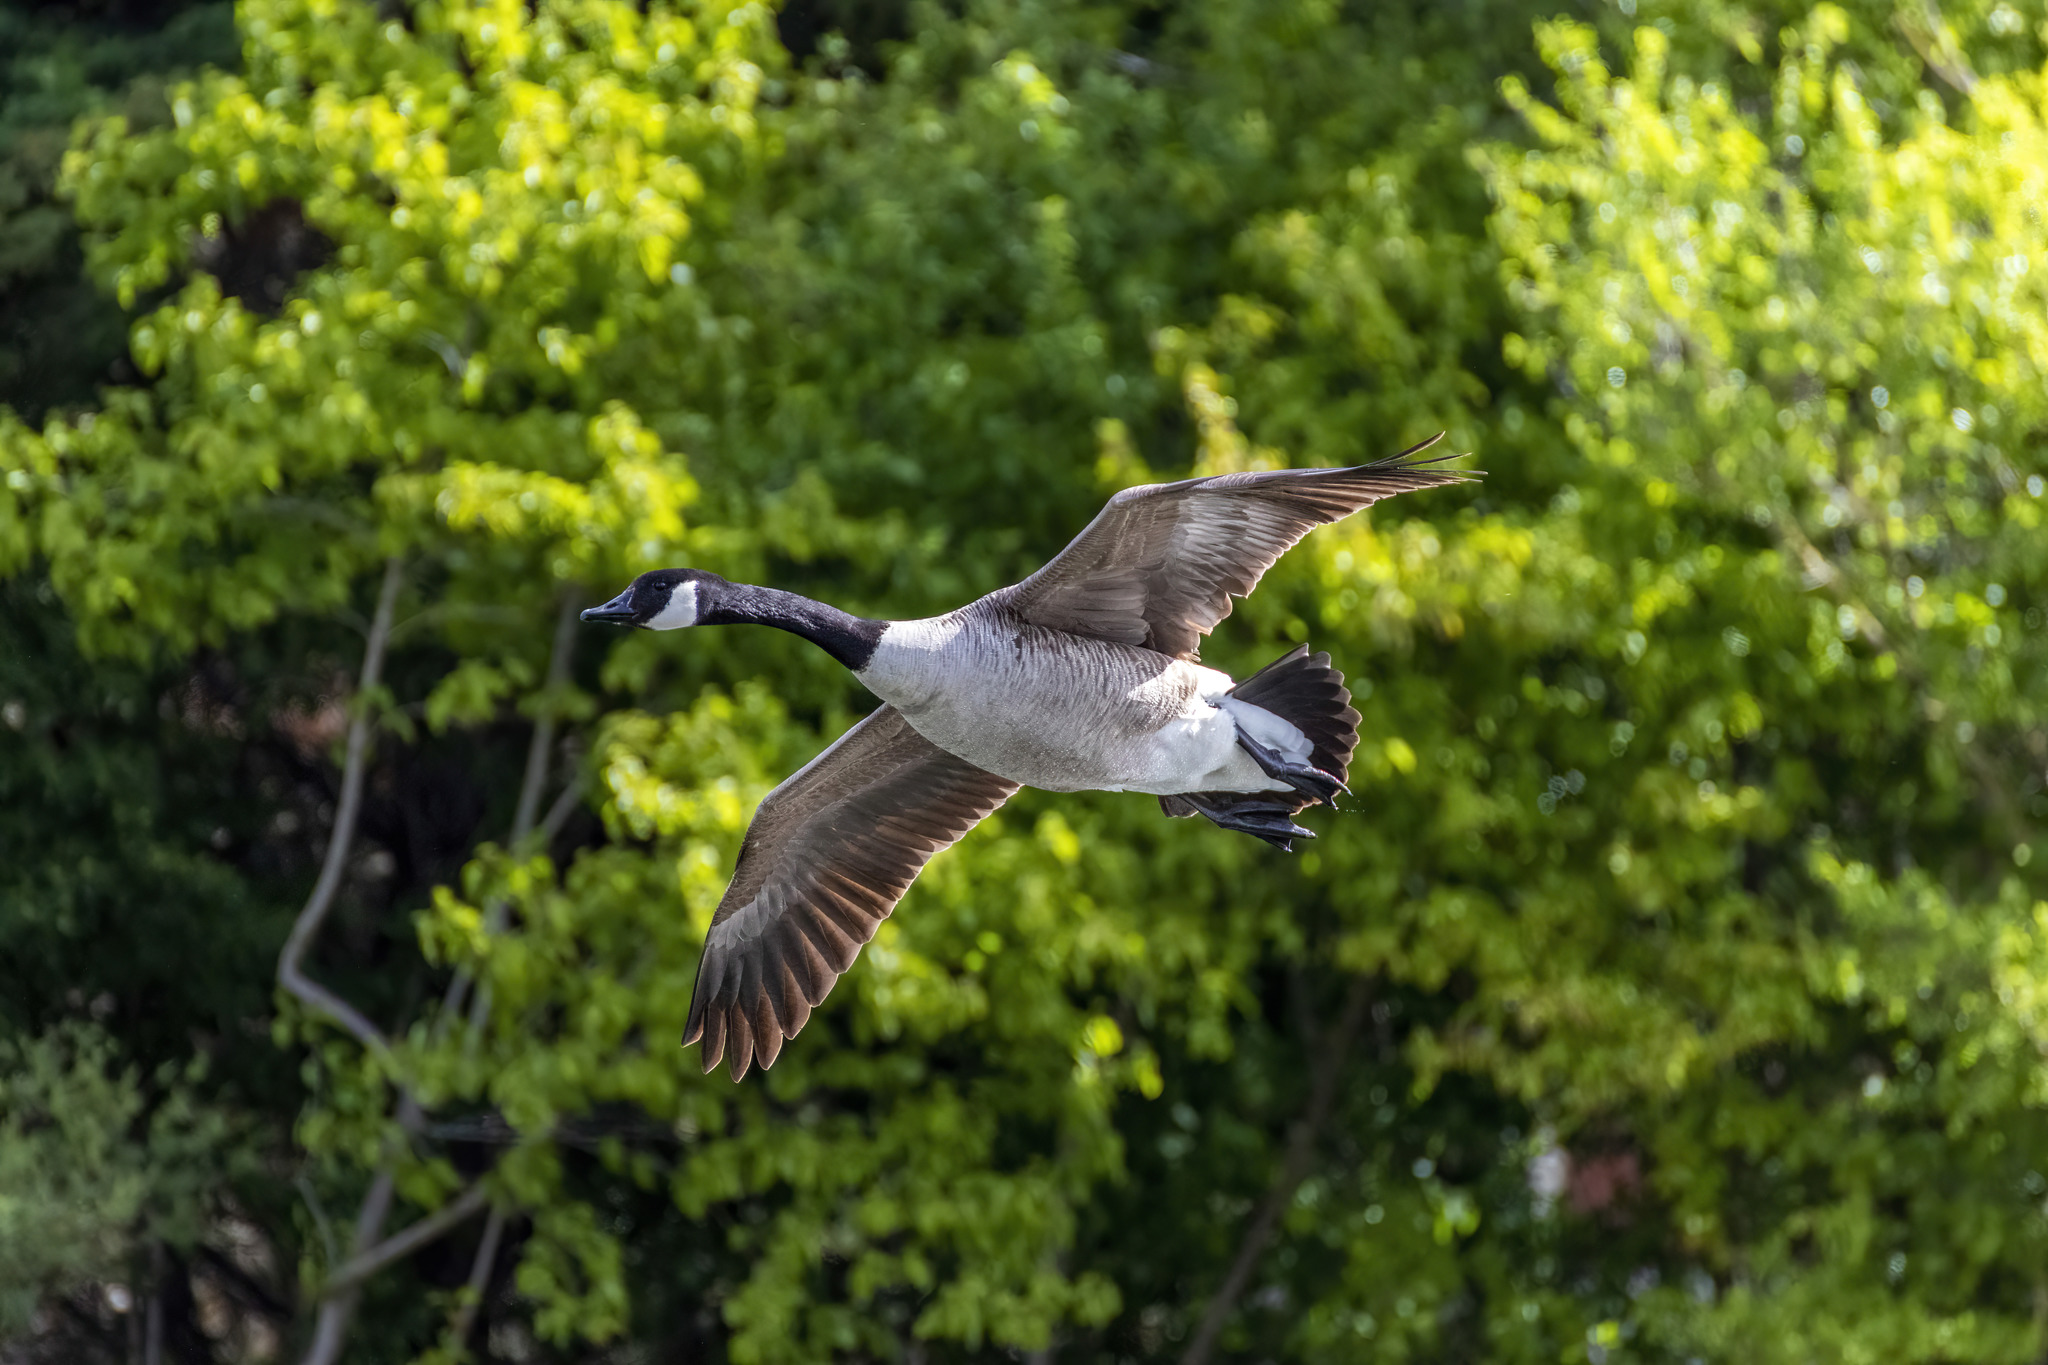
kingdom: Animalia
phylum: Chordata
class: Aves
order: Anseriformes
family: Anatidae
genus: Branta
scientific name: Branta canadensis
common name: Canada goose
